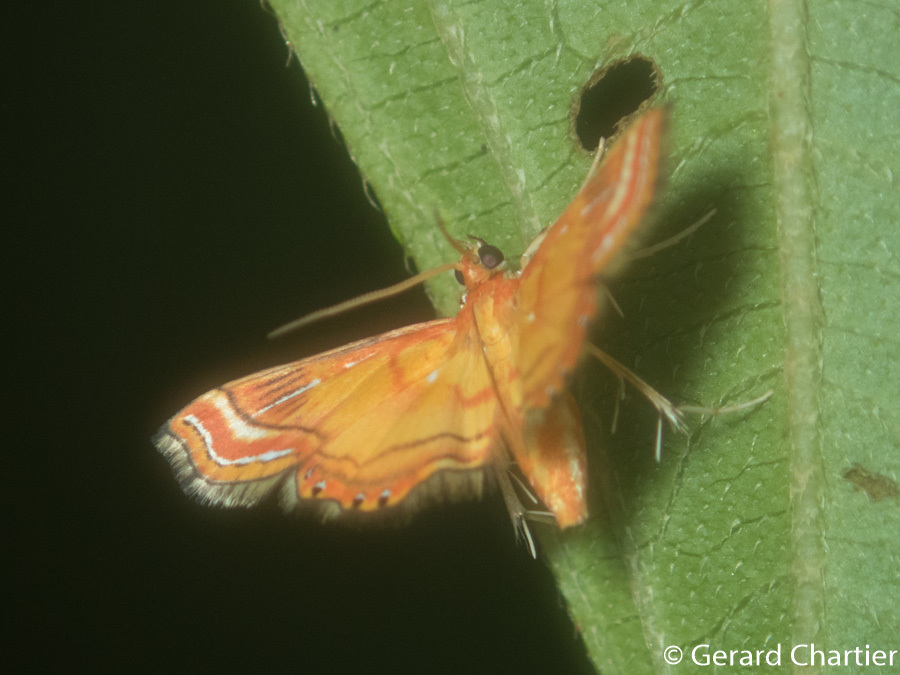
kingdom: Animalia
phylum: Arthropoda
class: Insecta
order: Lepidoptera
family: Crambidae
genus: Ambia
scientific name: Ambia decoralis
